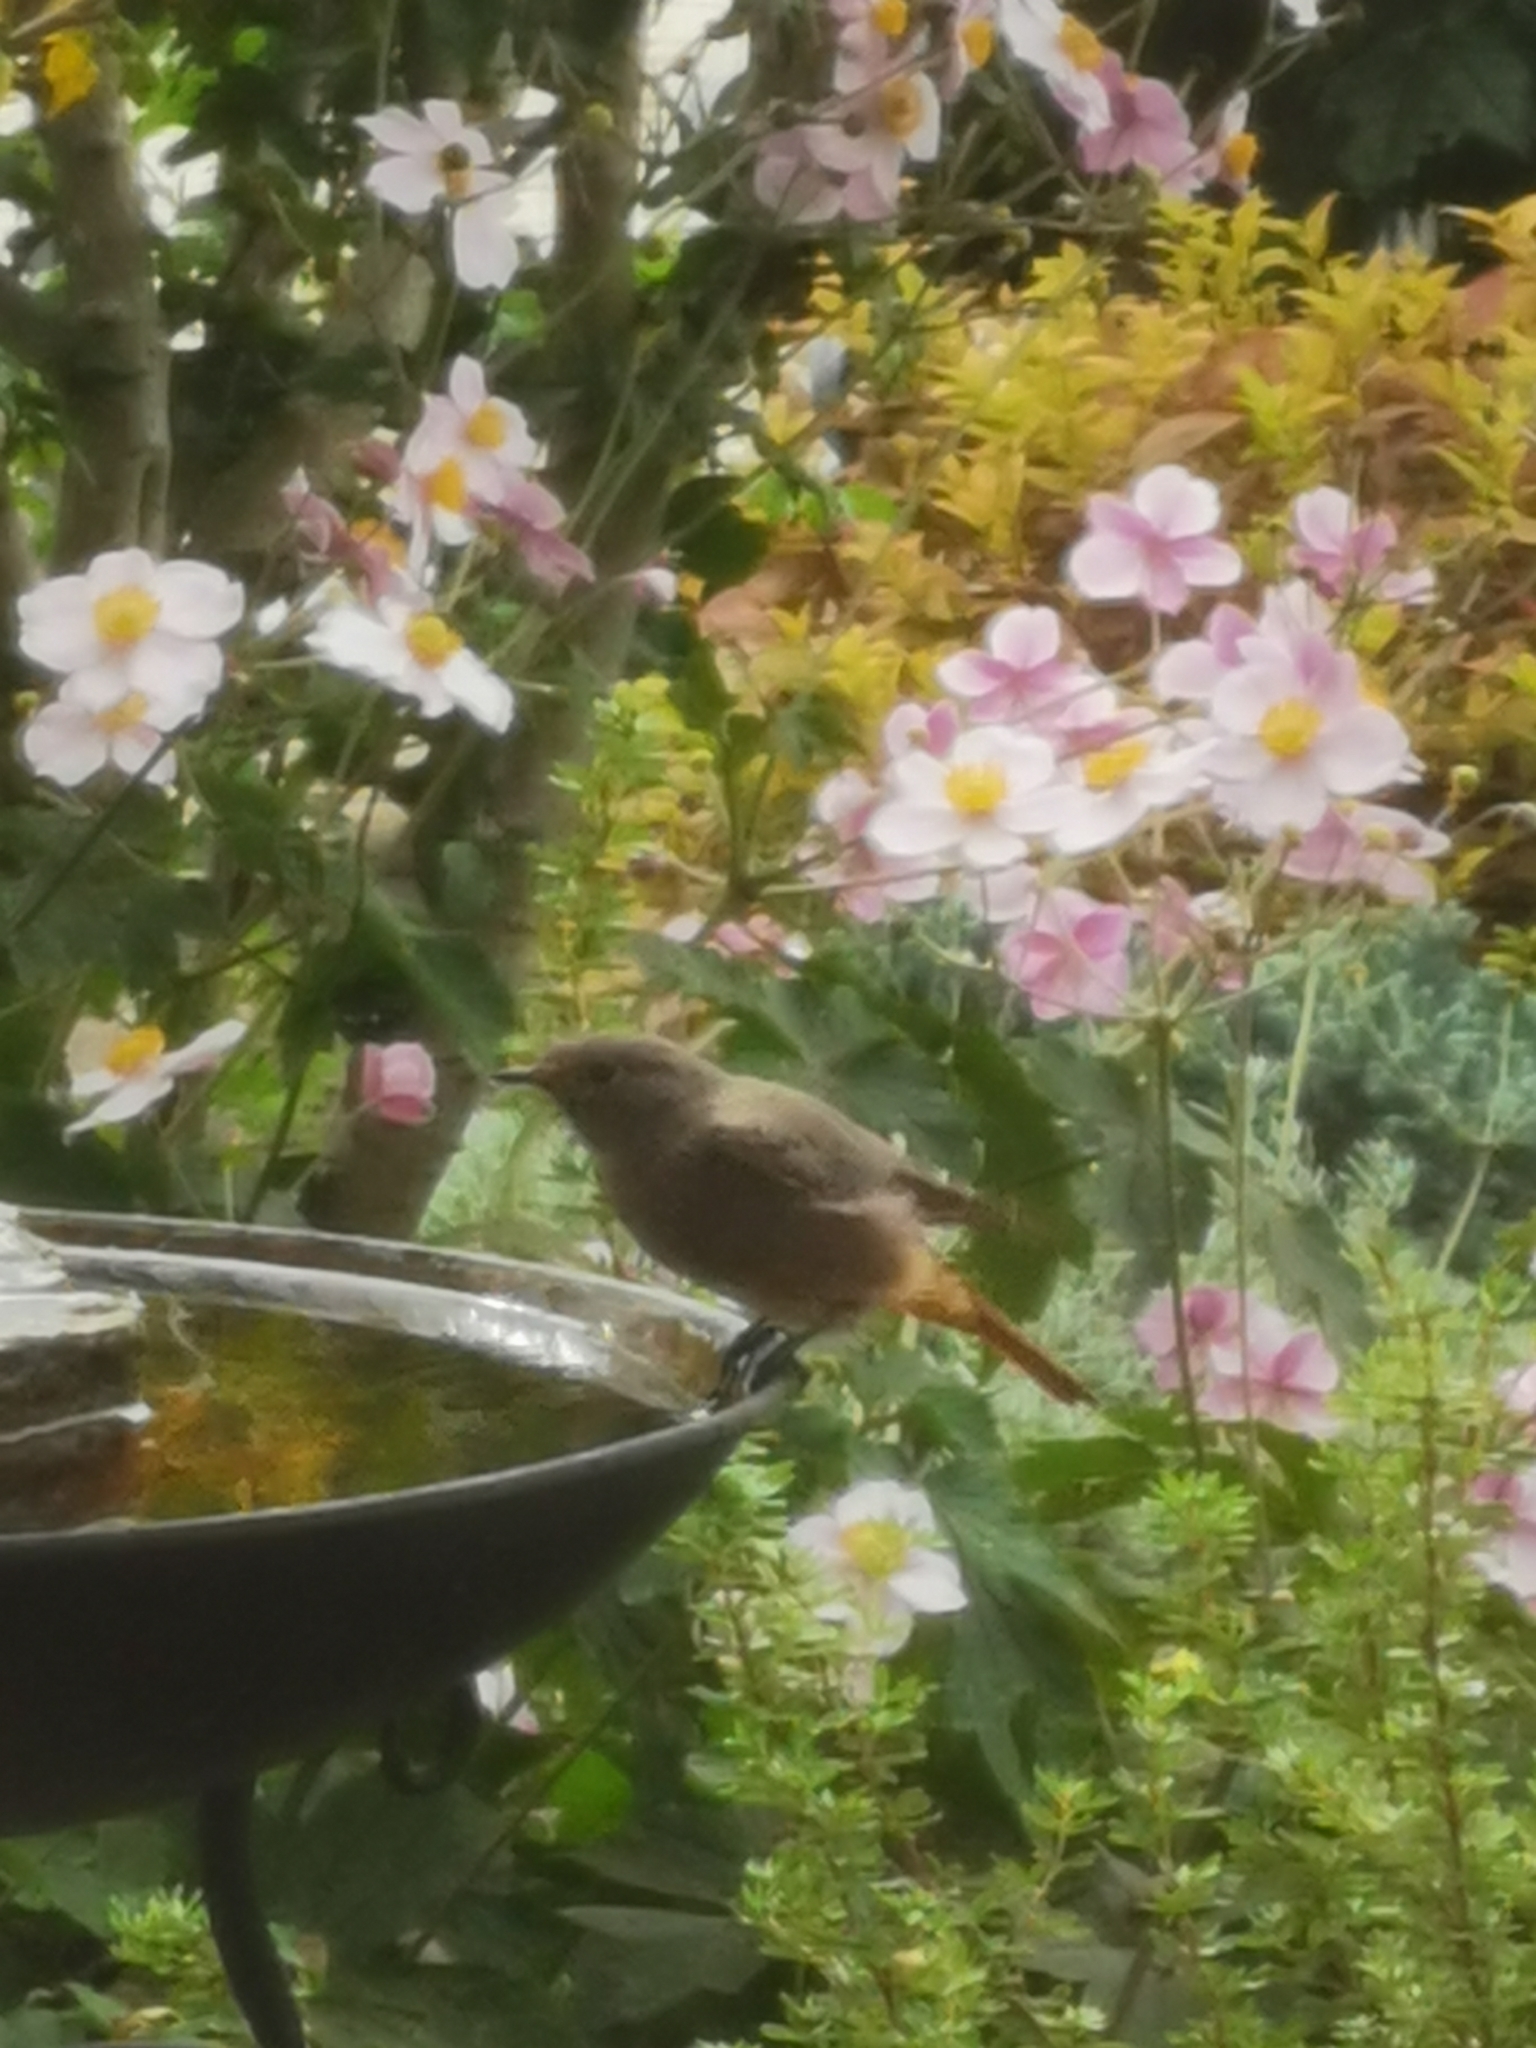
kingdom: Animalia
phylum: Chordata
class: Aves
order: Passeriformes
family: Muscicapidae
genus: Phoenicurus
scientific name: Phoenicurus ochruros
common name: Black redstart
